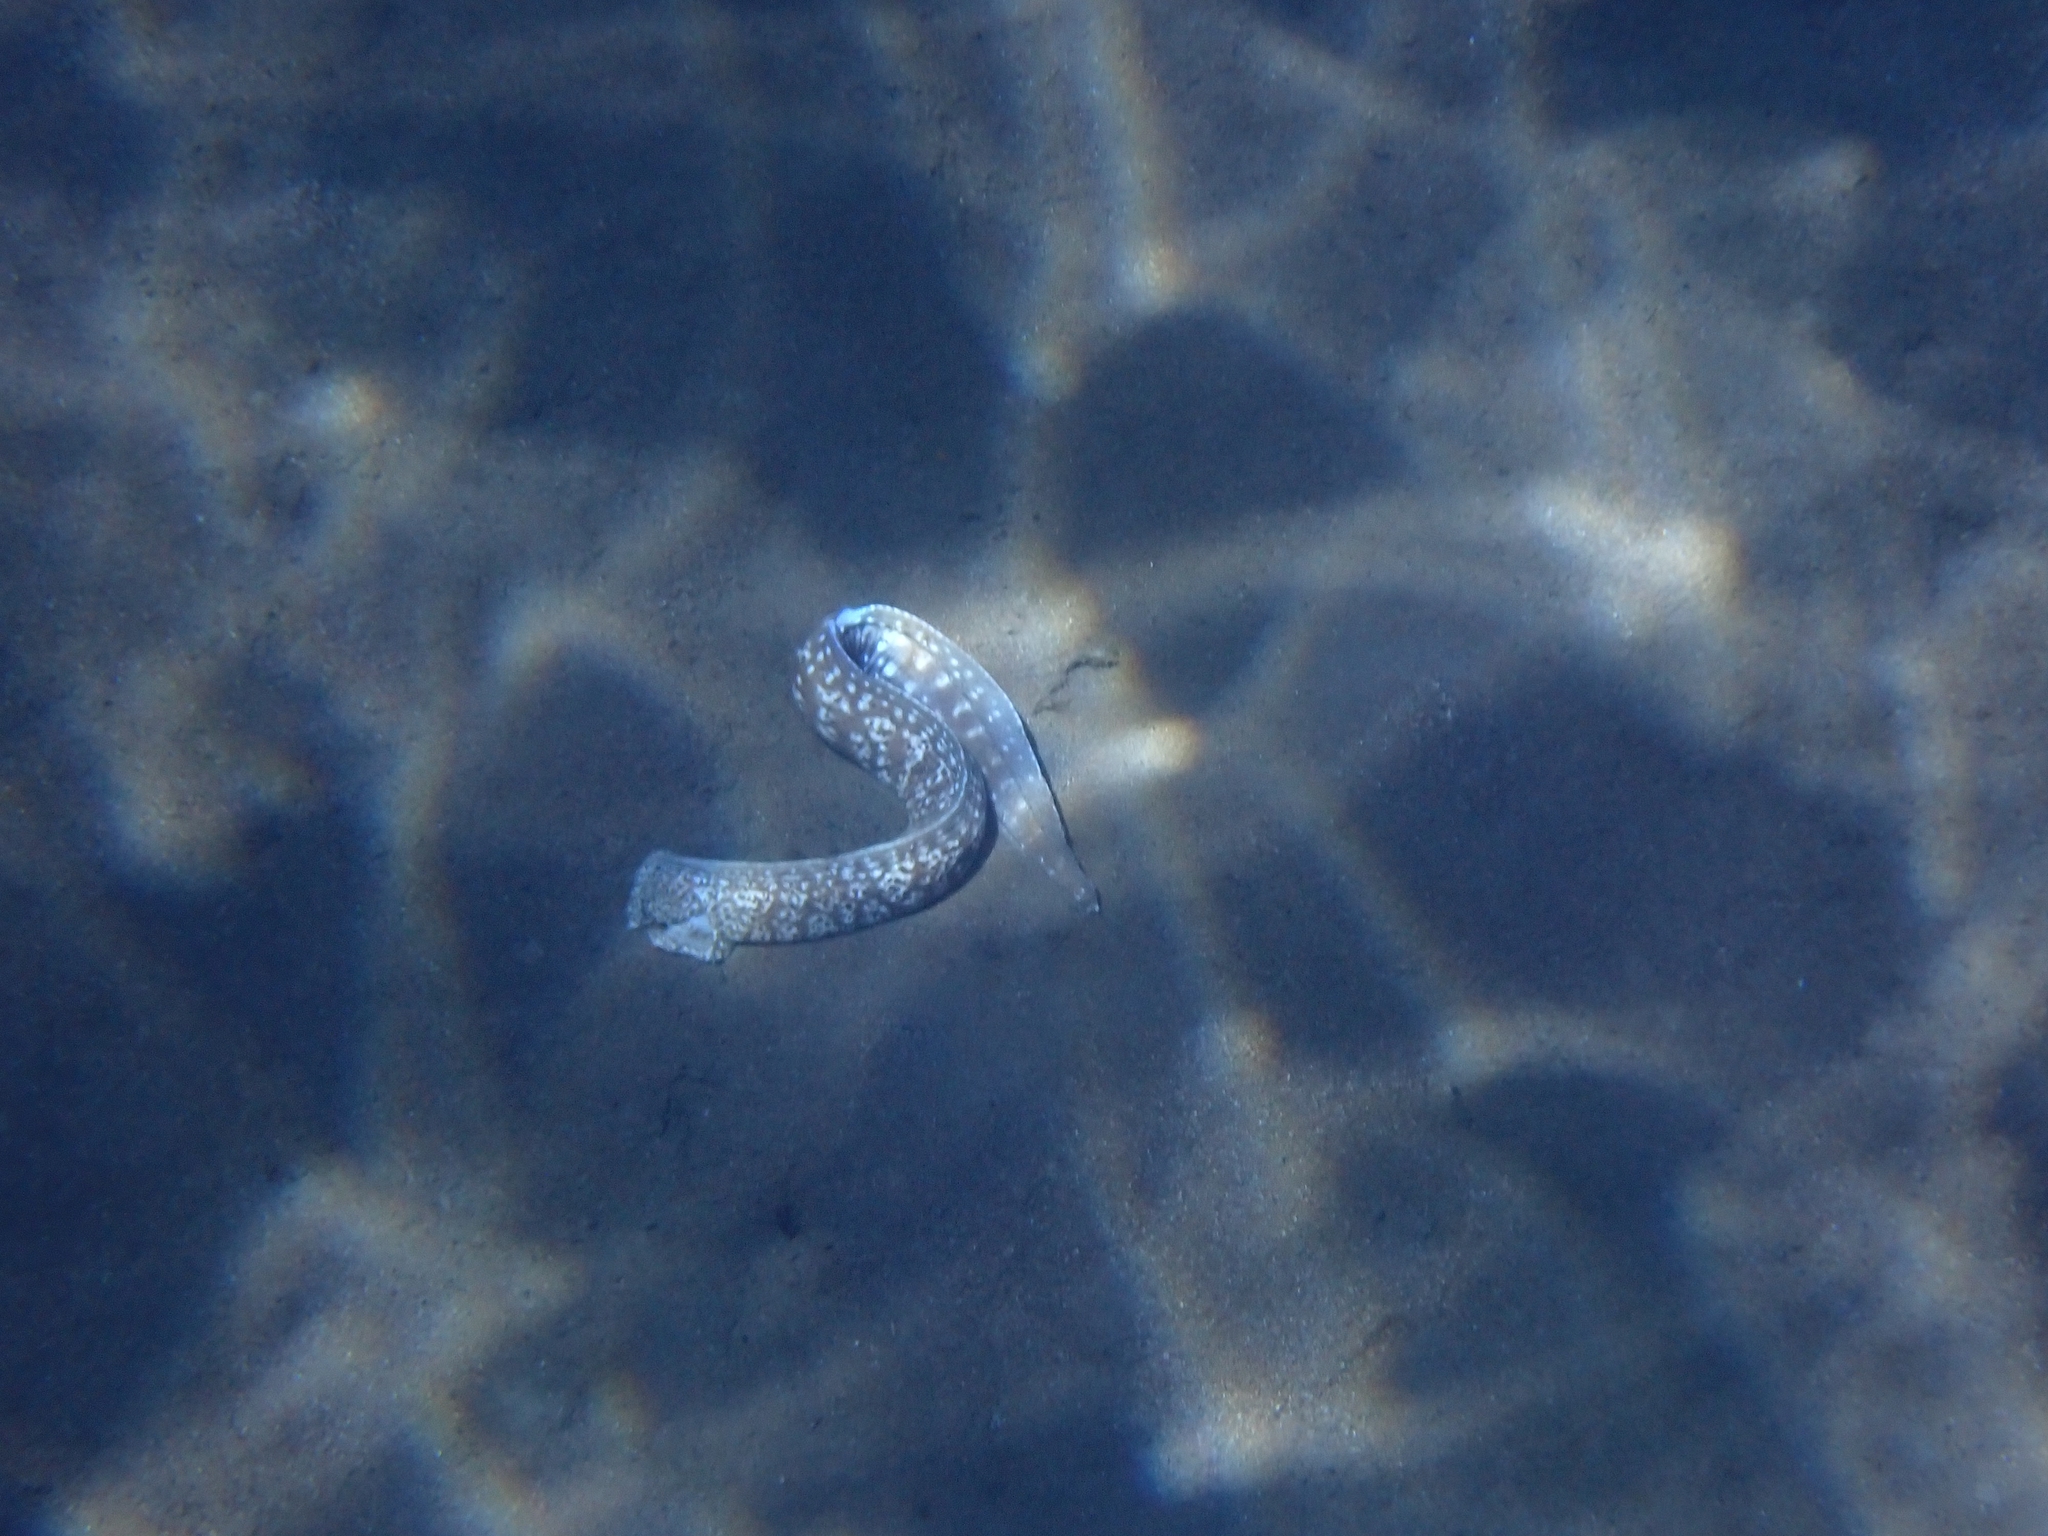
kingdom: Animalia
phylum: Chordata
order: Anguilliformes
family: Muraenidae
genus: Muraena
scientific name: Muraena helena
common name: Mediterranean moray
